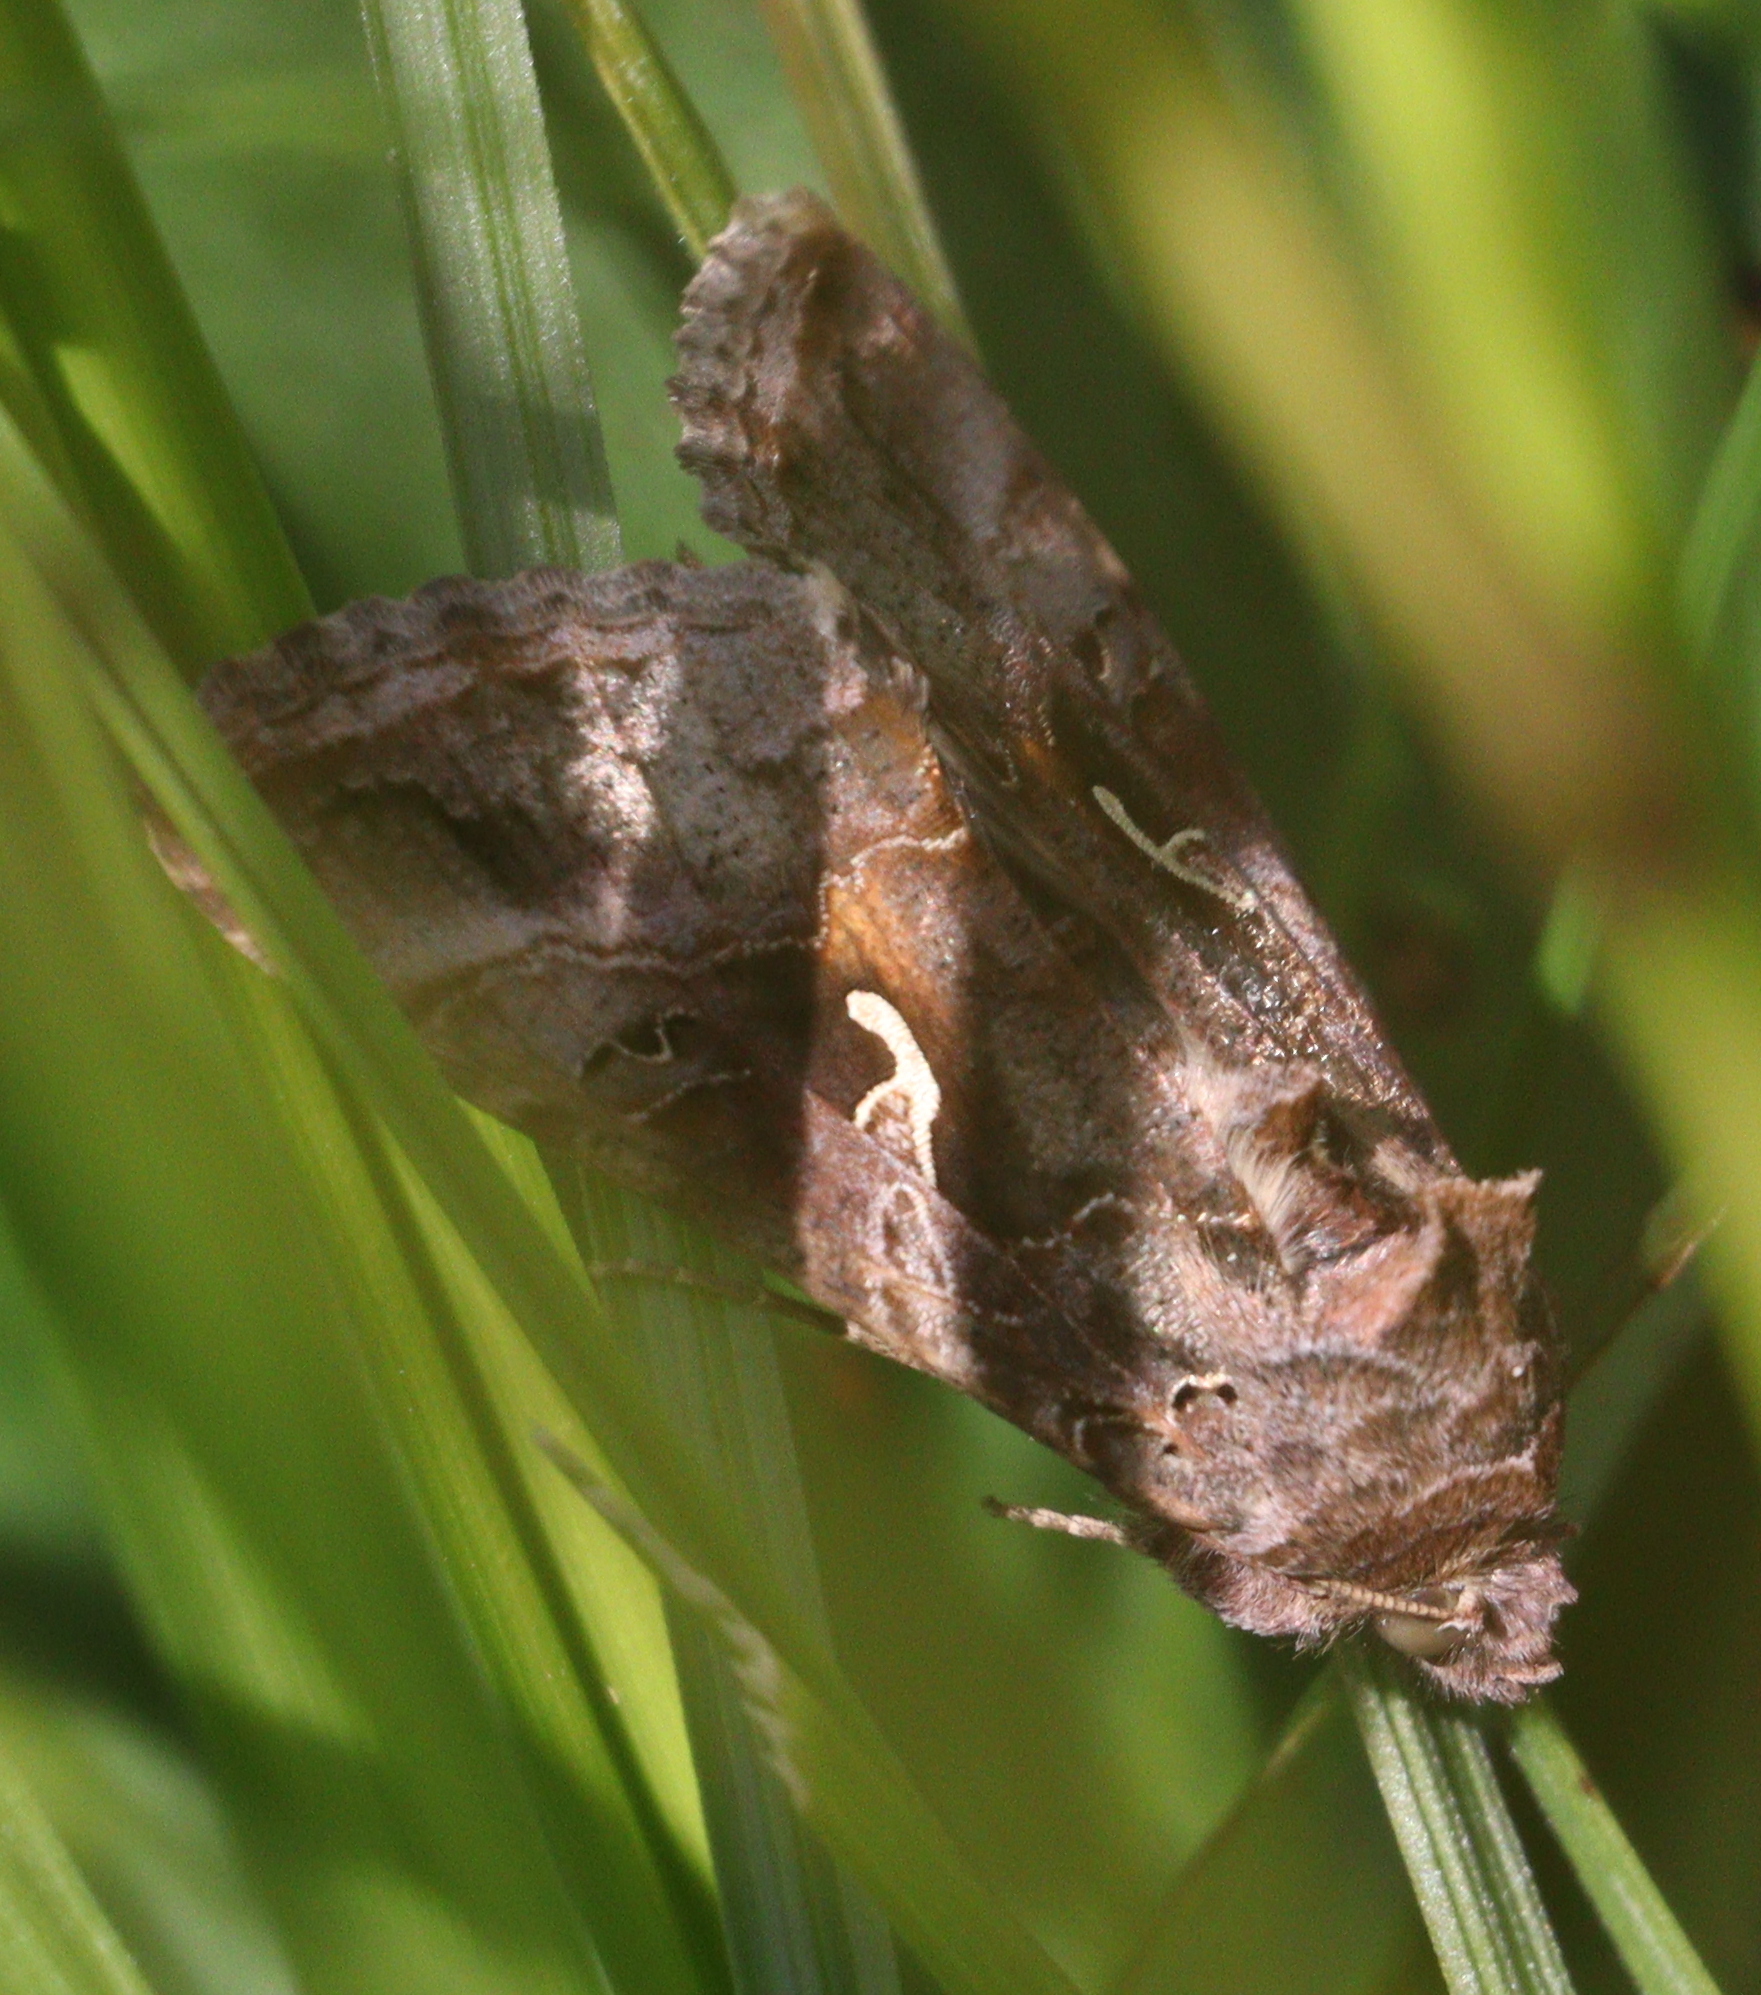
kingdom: Animalia
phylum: Arthropoda
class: Insecta
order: Lepidoptera
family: Noctuidae
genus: Autographa
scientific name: Autographa gamma
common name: Silver y
